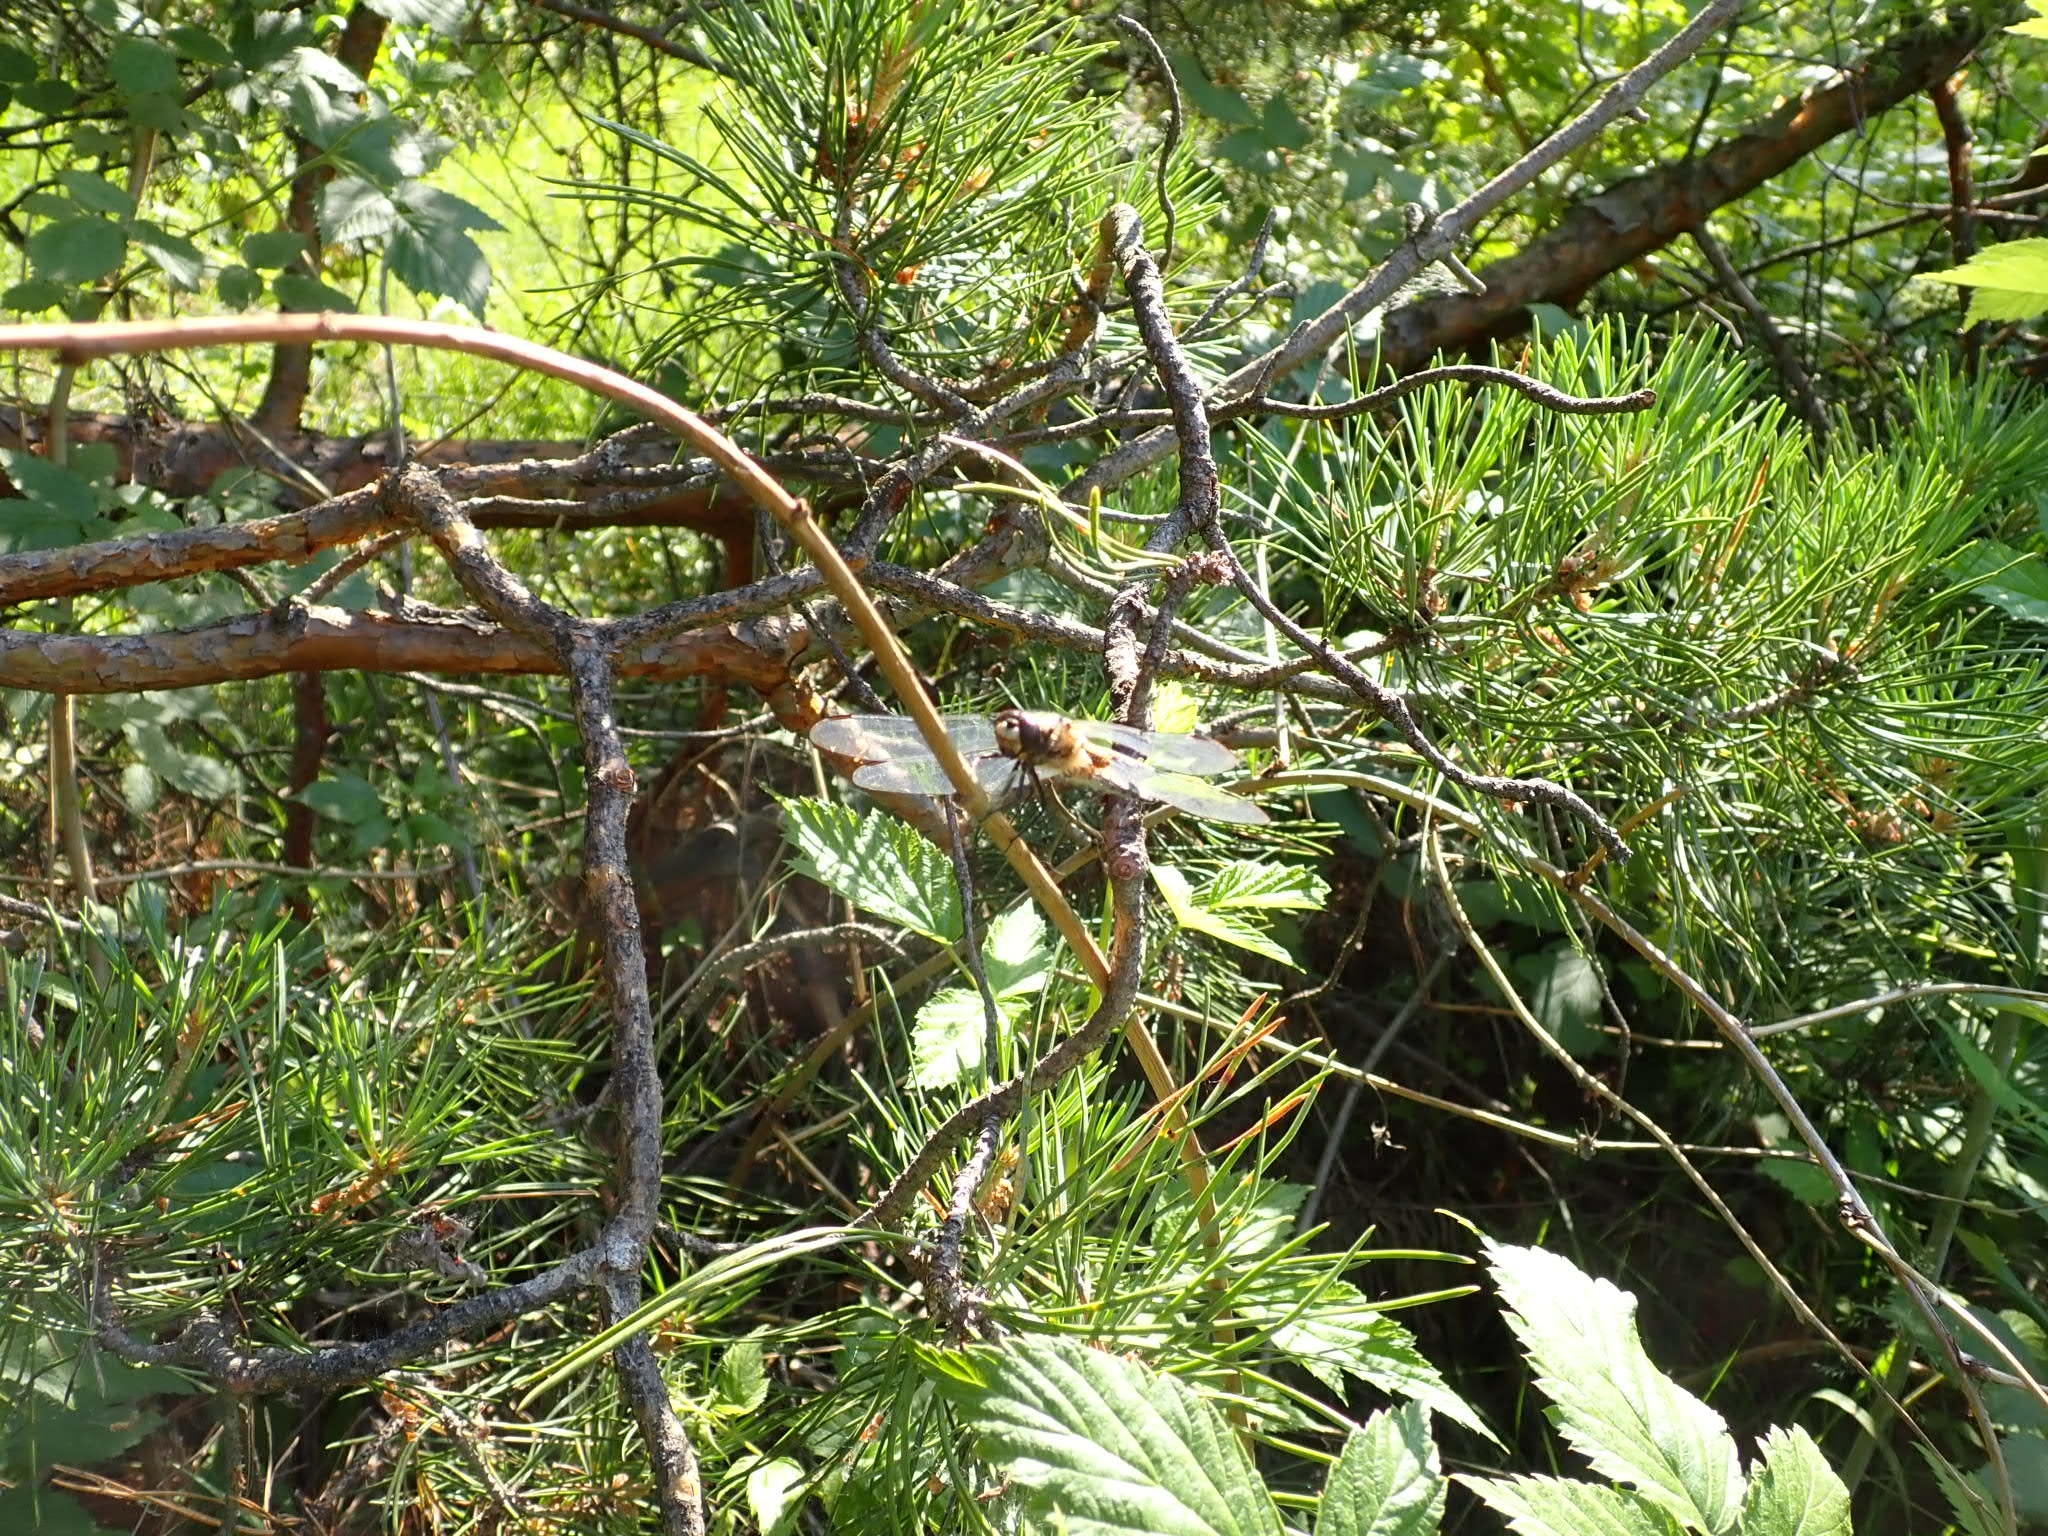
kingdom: Animalia
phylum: Arthropoda
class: Insecta
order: Odonata
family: Libellulidae
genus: Libellula
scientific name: Libellula quadrimaculata
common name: Four-spotted chaser
